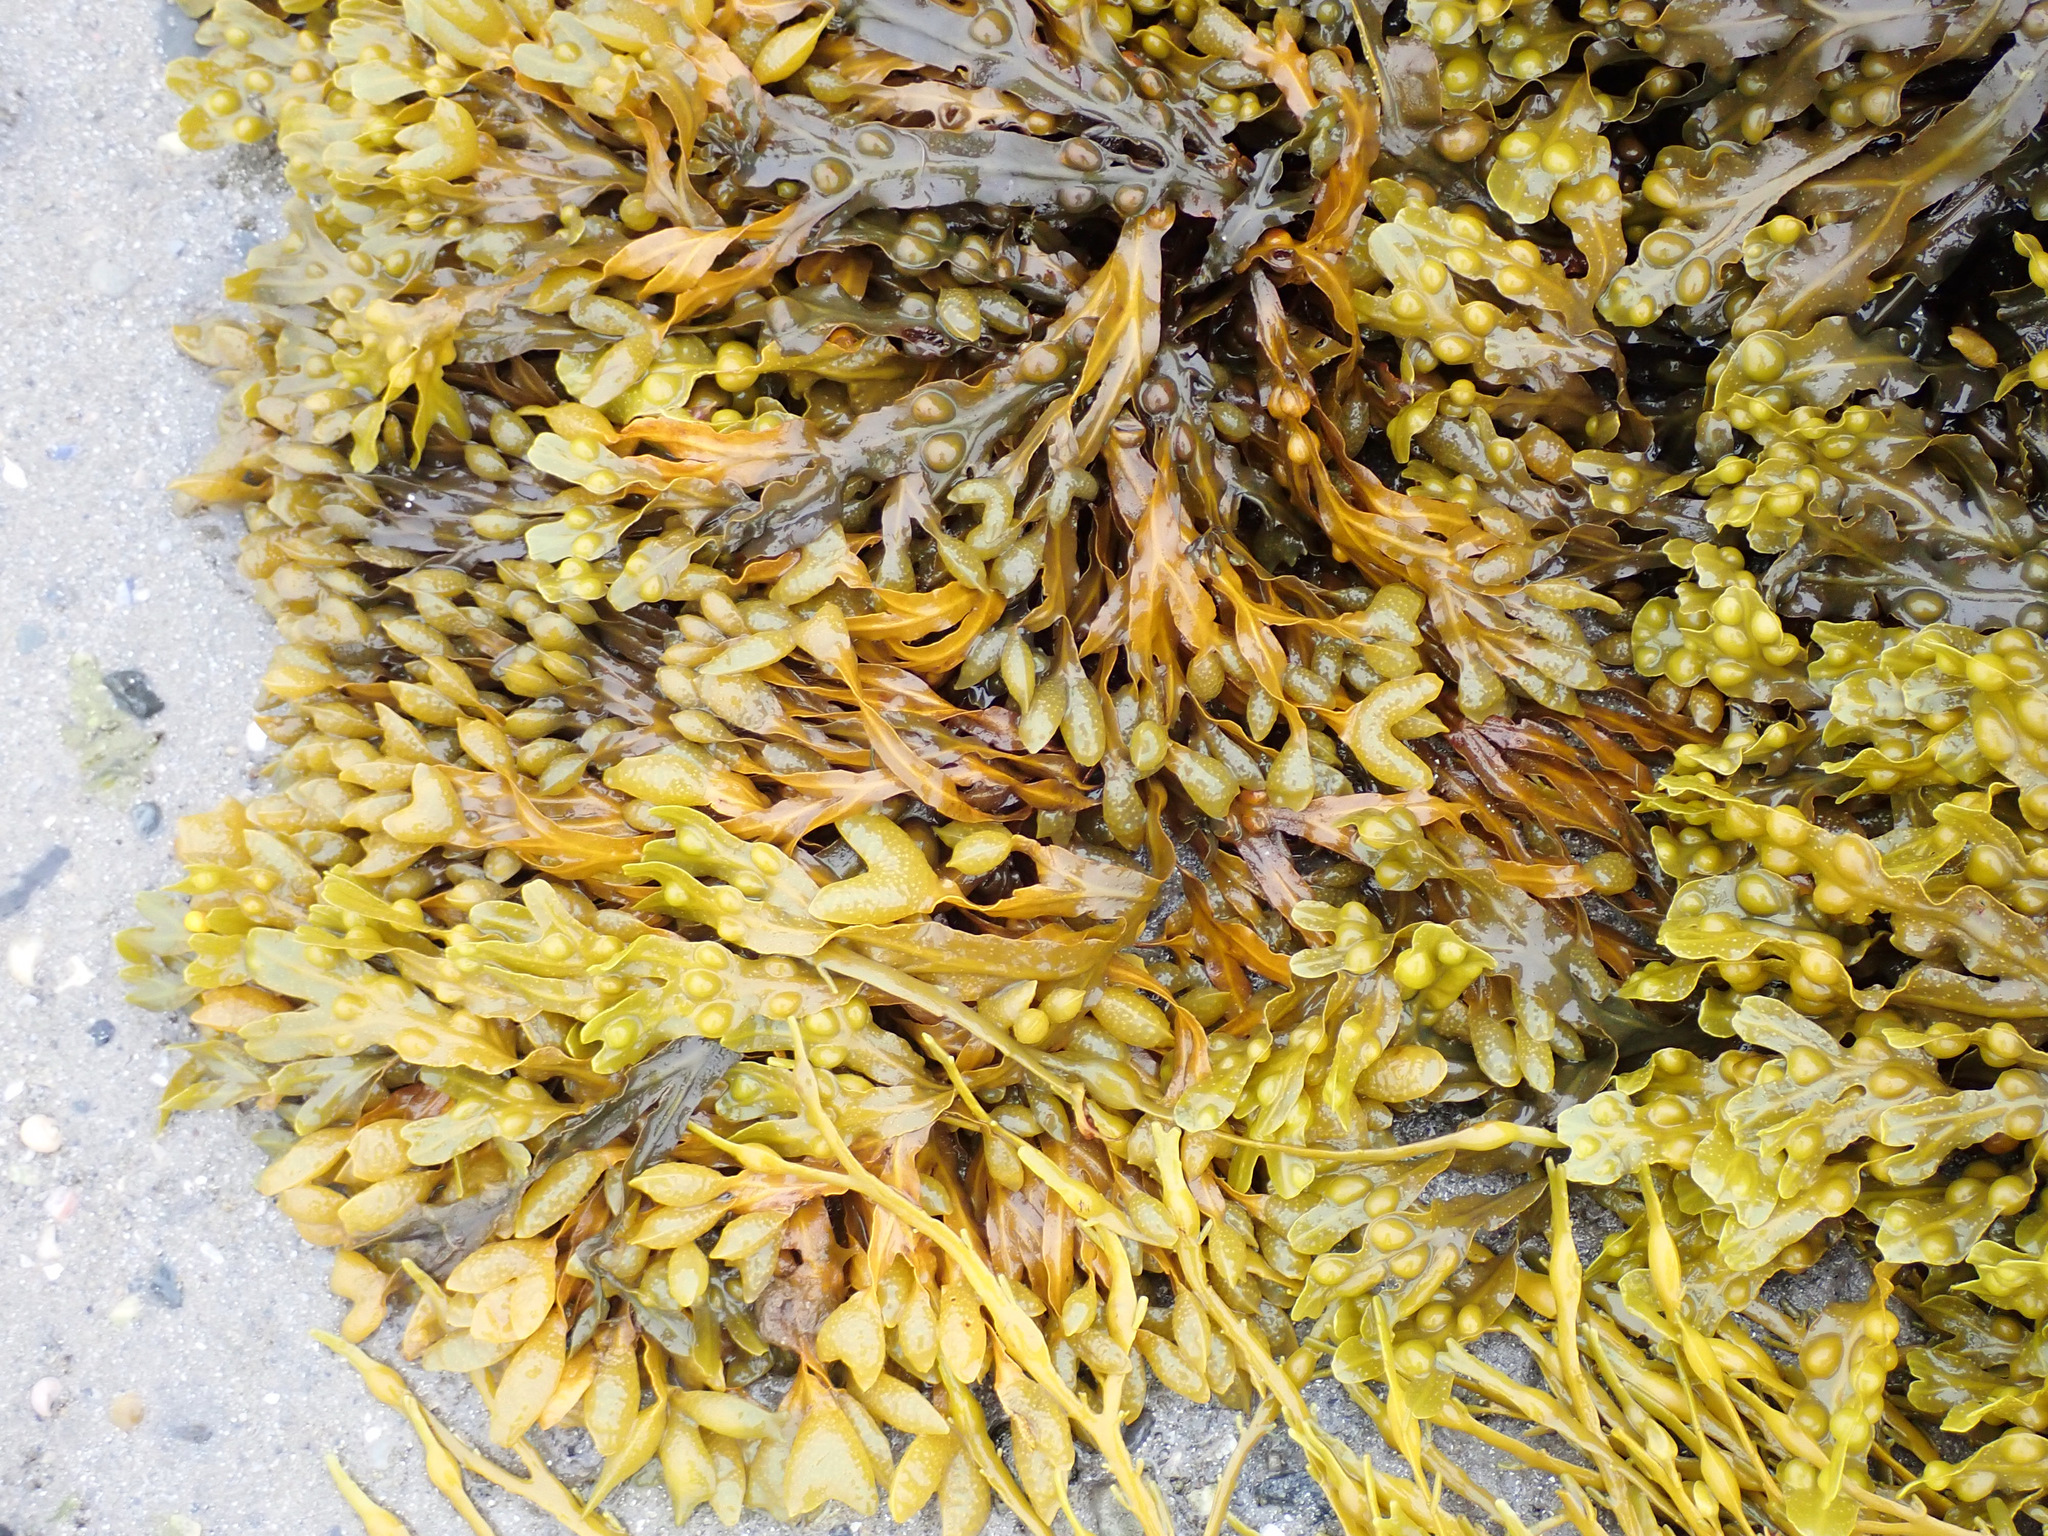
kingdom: Chromista
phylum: Ochrophyta
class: Phaeophyceae
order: Fucales
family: Fucaceae
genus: Fucus
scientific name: Fucus vesiculosus
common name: Bladder wrack
